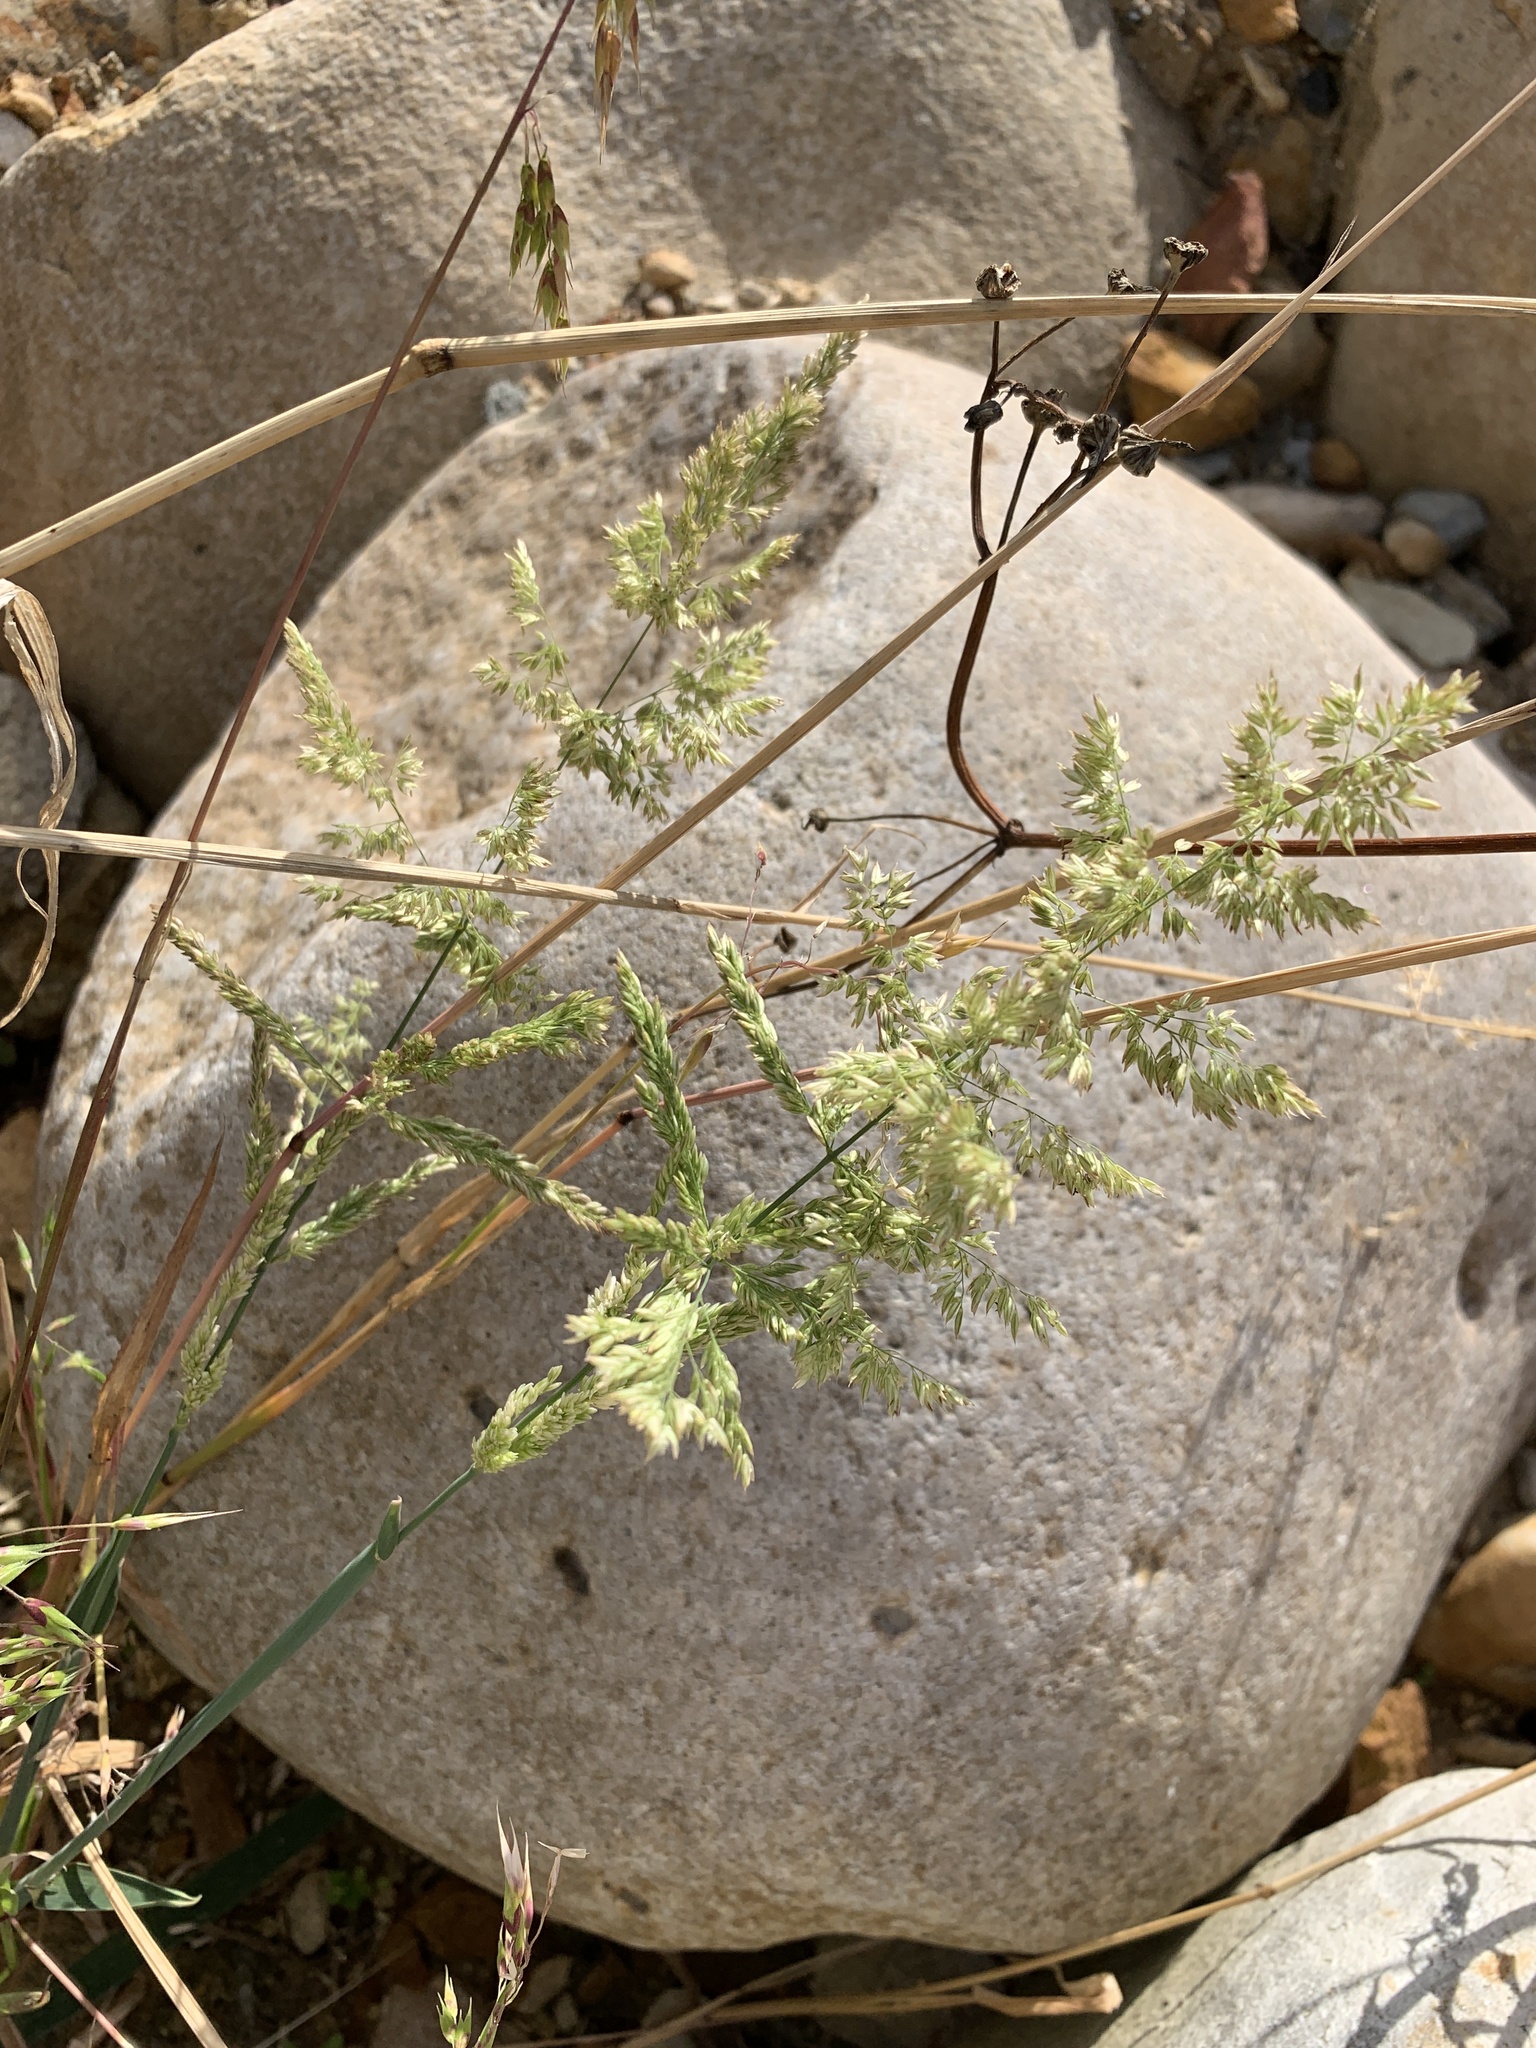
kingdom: Plantae
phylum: Tracheophyta
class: Liliopsida
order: Poales
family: Poaceae
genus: Polypogon
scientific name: Polypogon viridis
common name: Water bent
